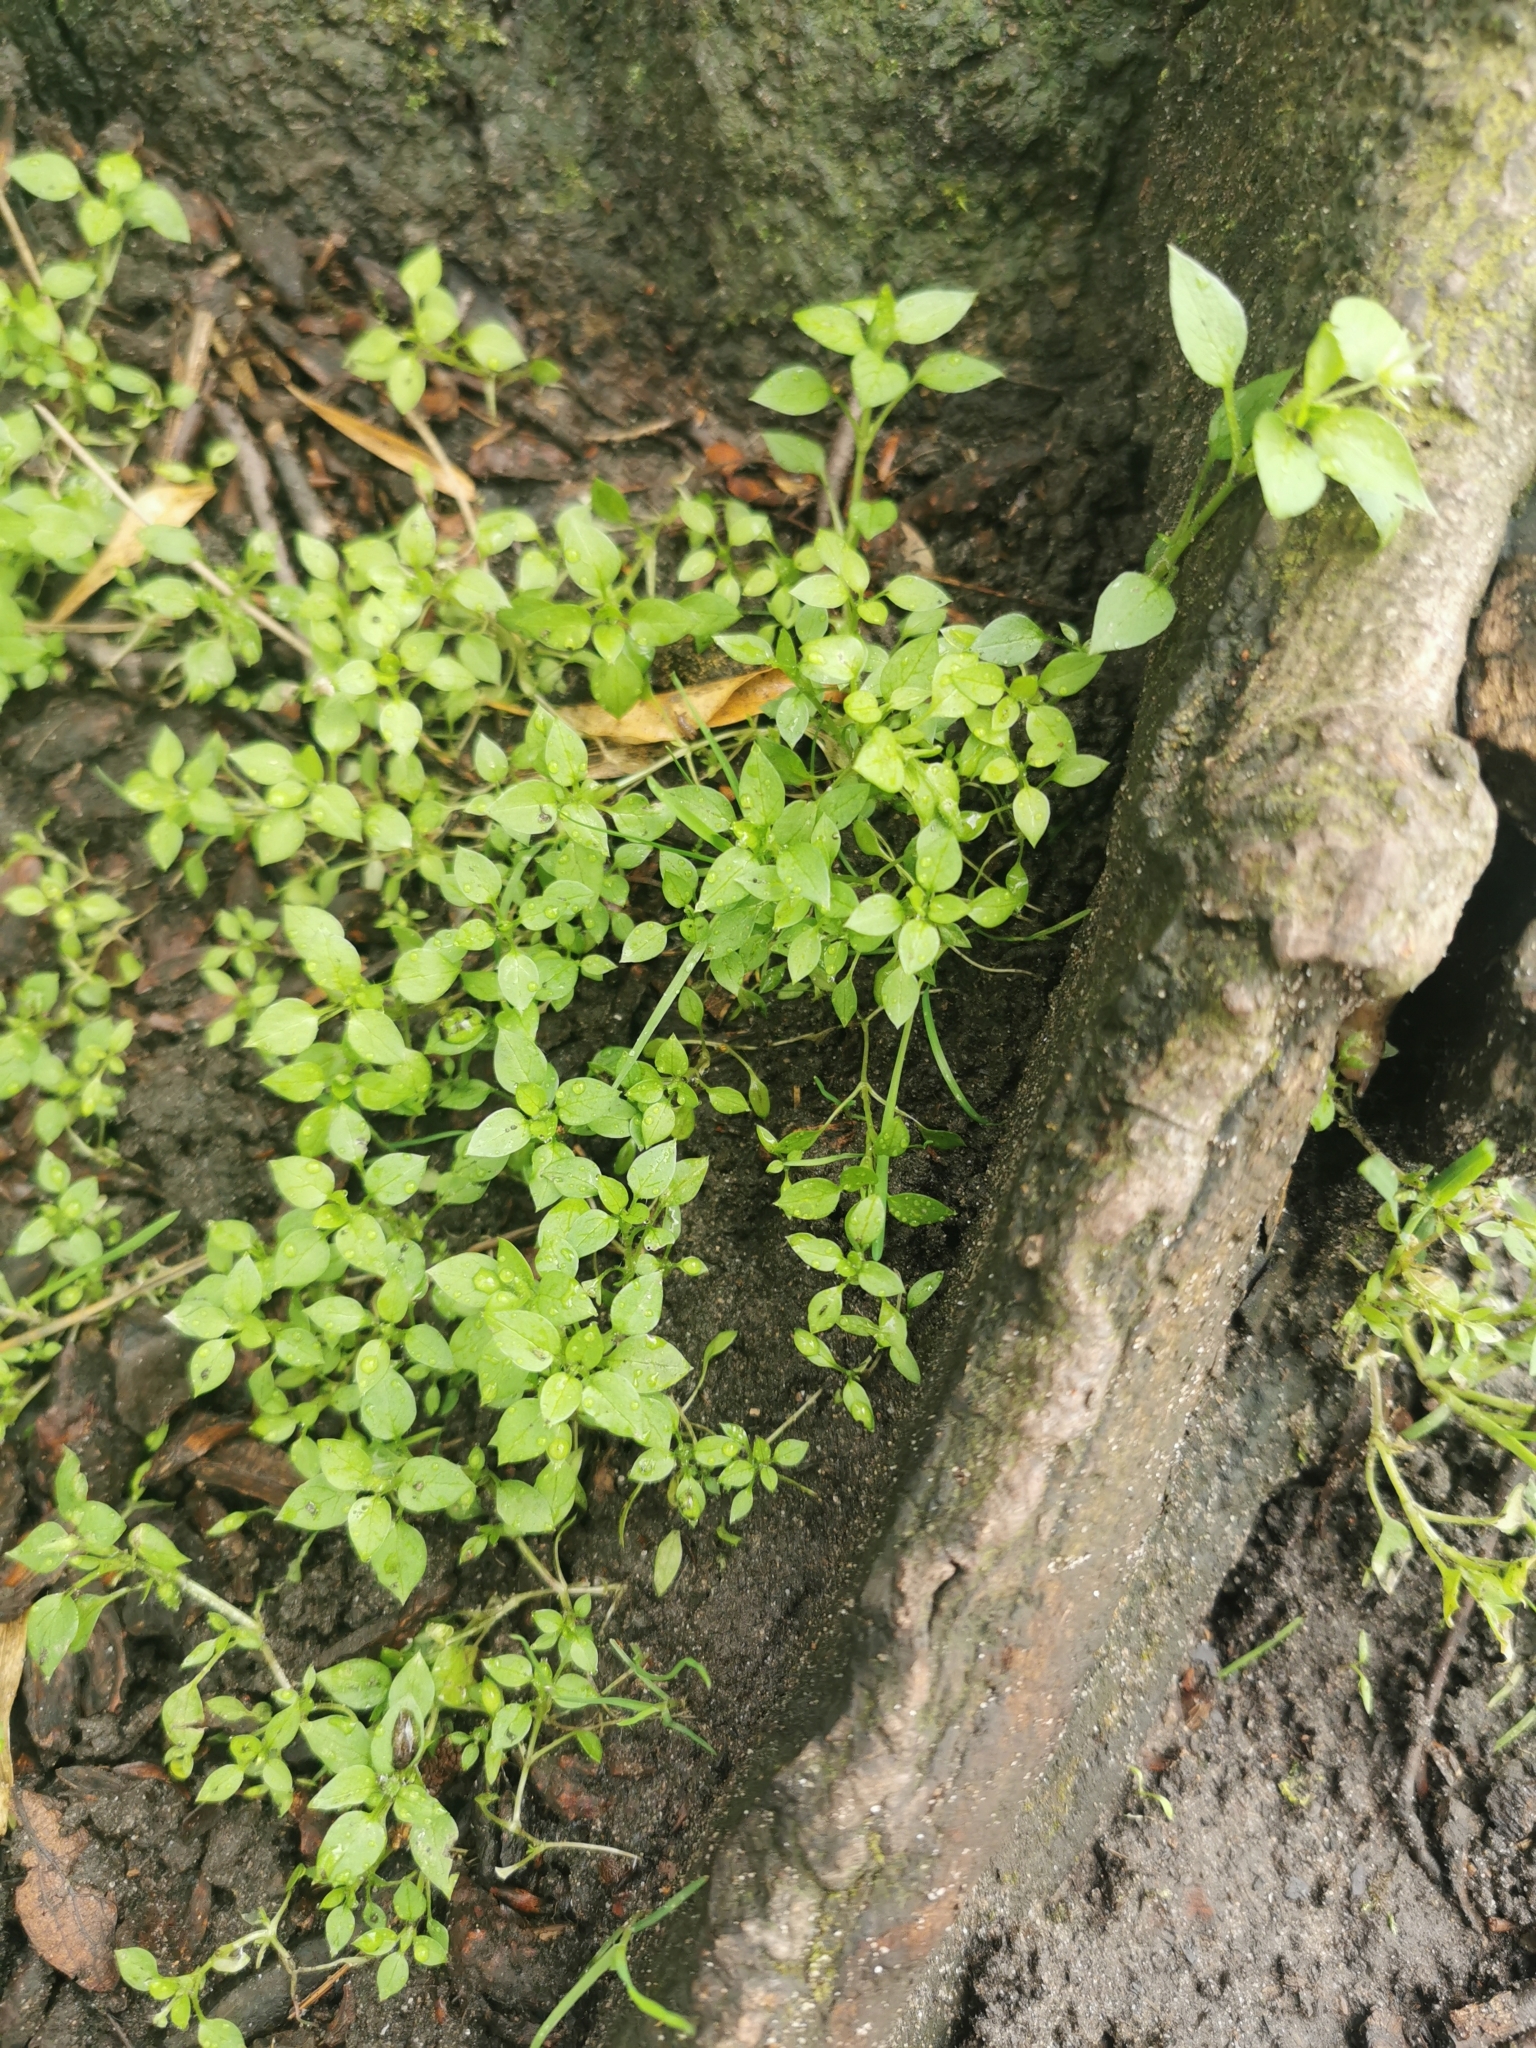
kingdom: Plantae
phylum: Tracheophyta
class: Magnoliopsida
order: Caryophyllales
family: Caryophyllaceae
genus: Stellaria
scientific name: Stellaria media
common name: Common chickweed
